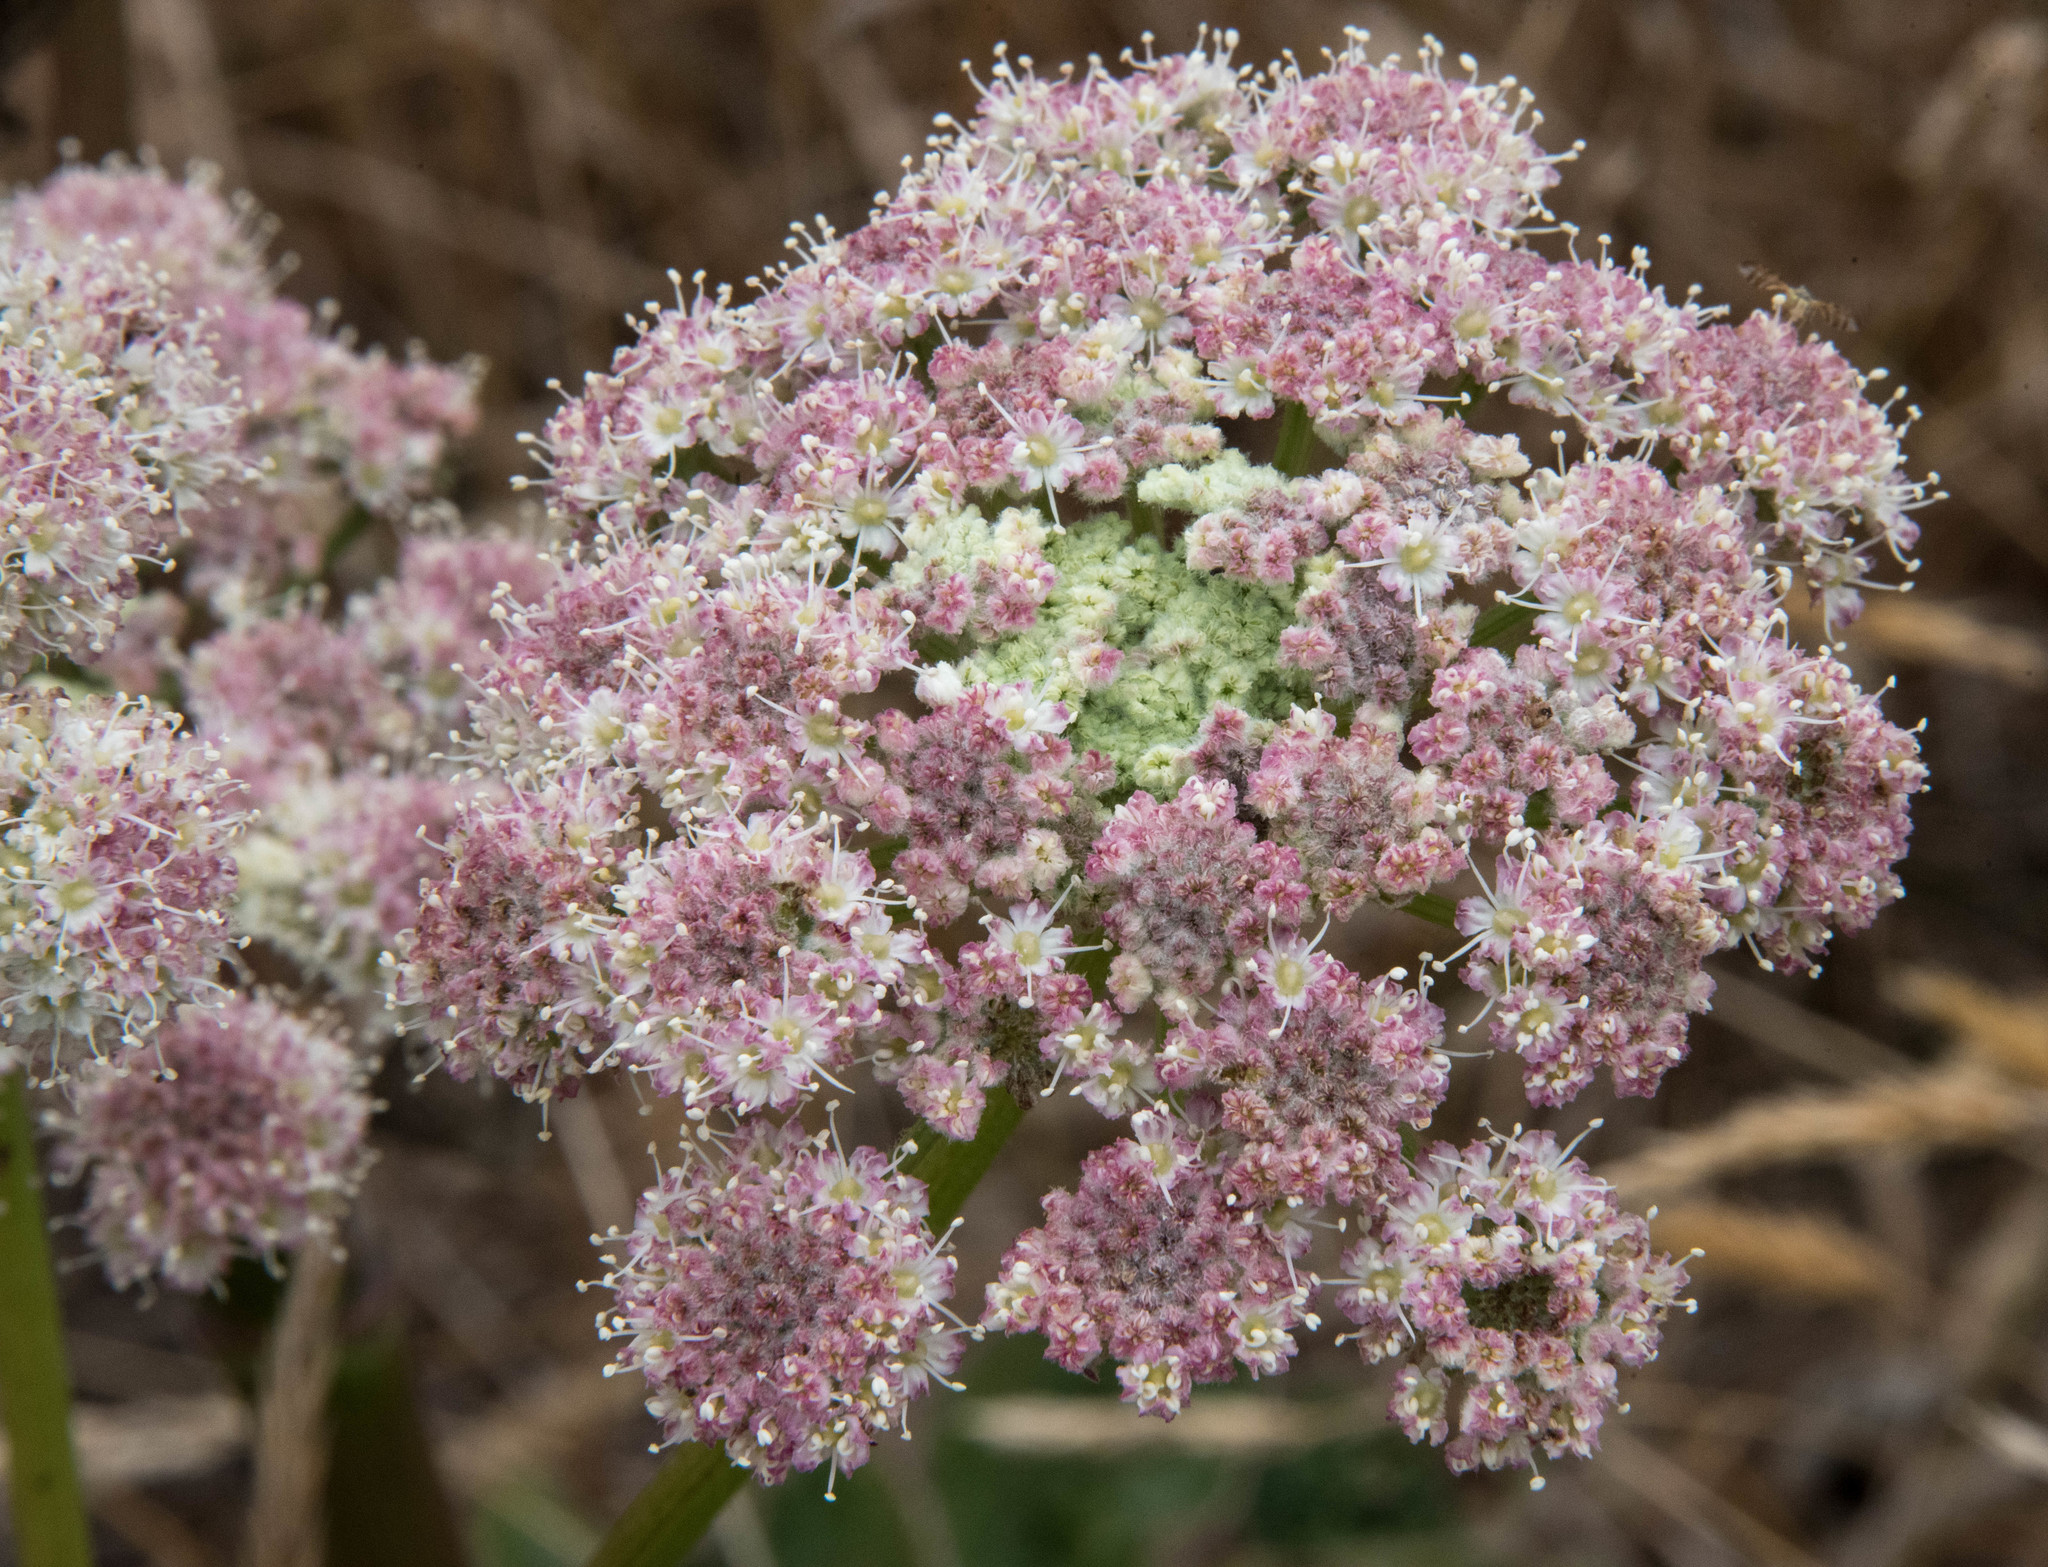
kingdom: Plantae
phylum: Tracheophyta
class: Magnoliopsida
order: Apiales
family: Apiaceae
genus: Angelica
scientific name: Angelica hendersonii
